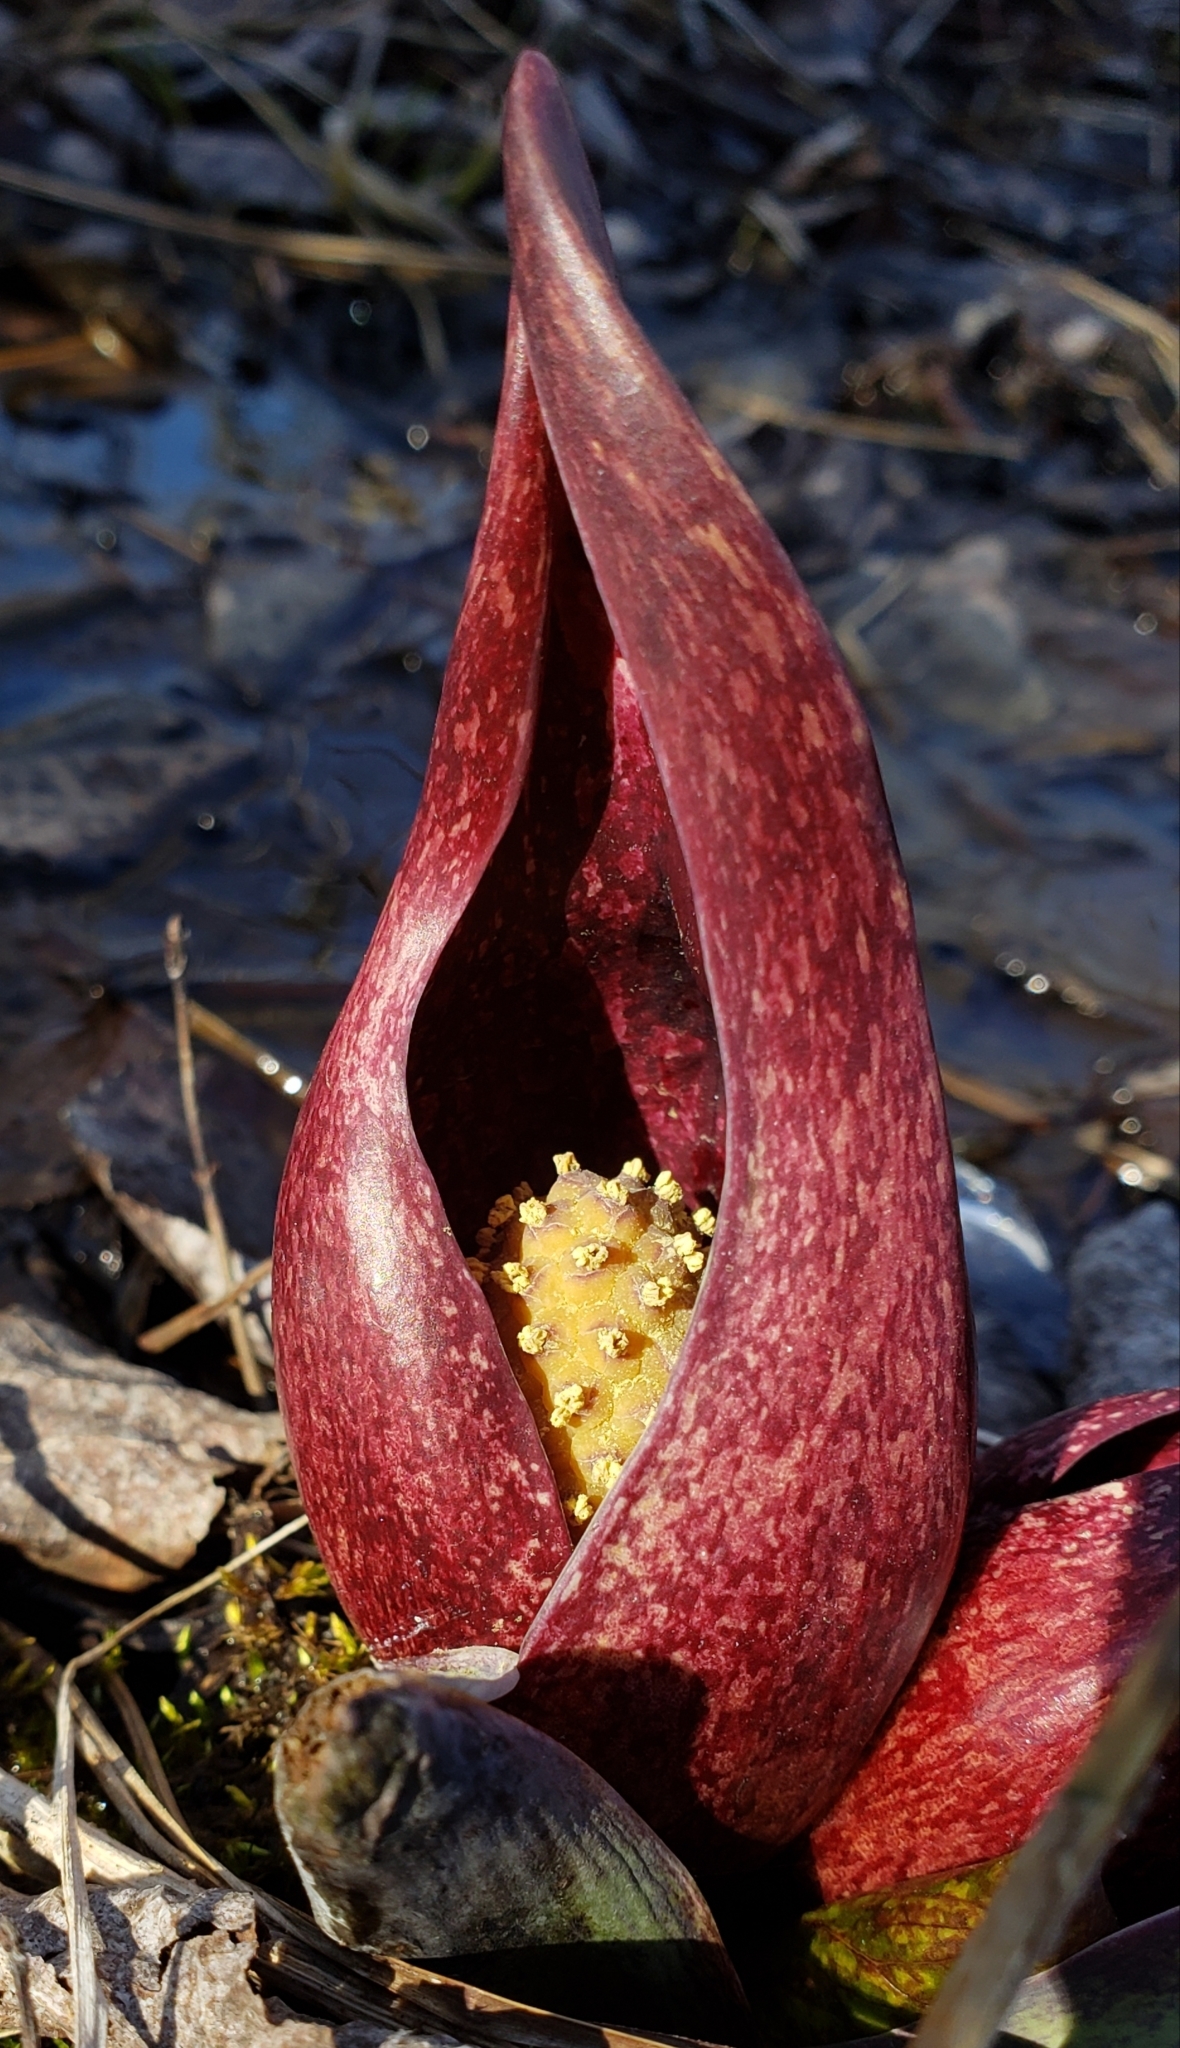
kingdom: Plantae
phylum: Tracheophyta
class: Liliopsida
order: Alismatales
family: Araceae
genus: Symplocarpus
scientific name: Symplocarpus foetidus
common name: Eastern skunk cabbage
